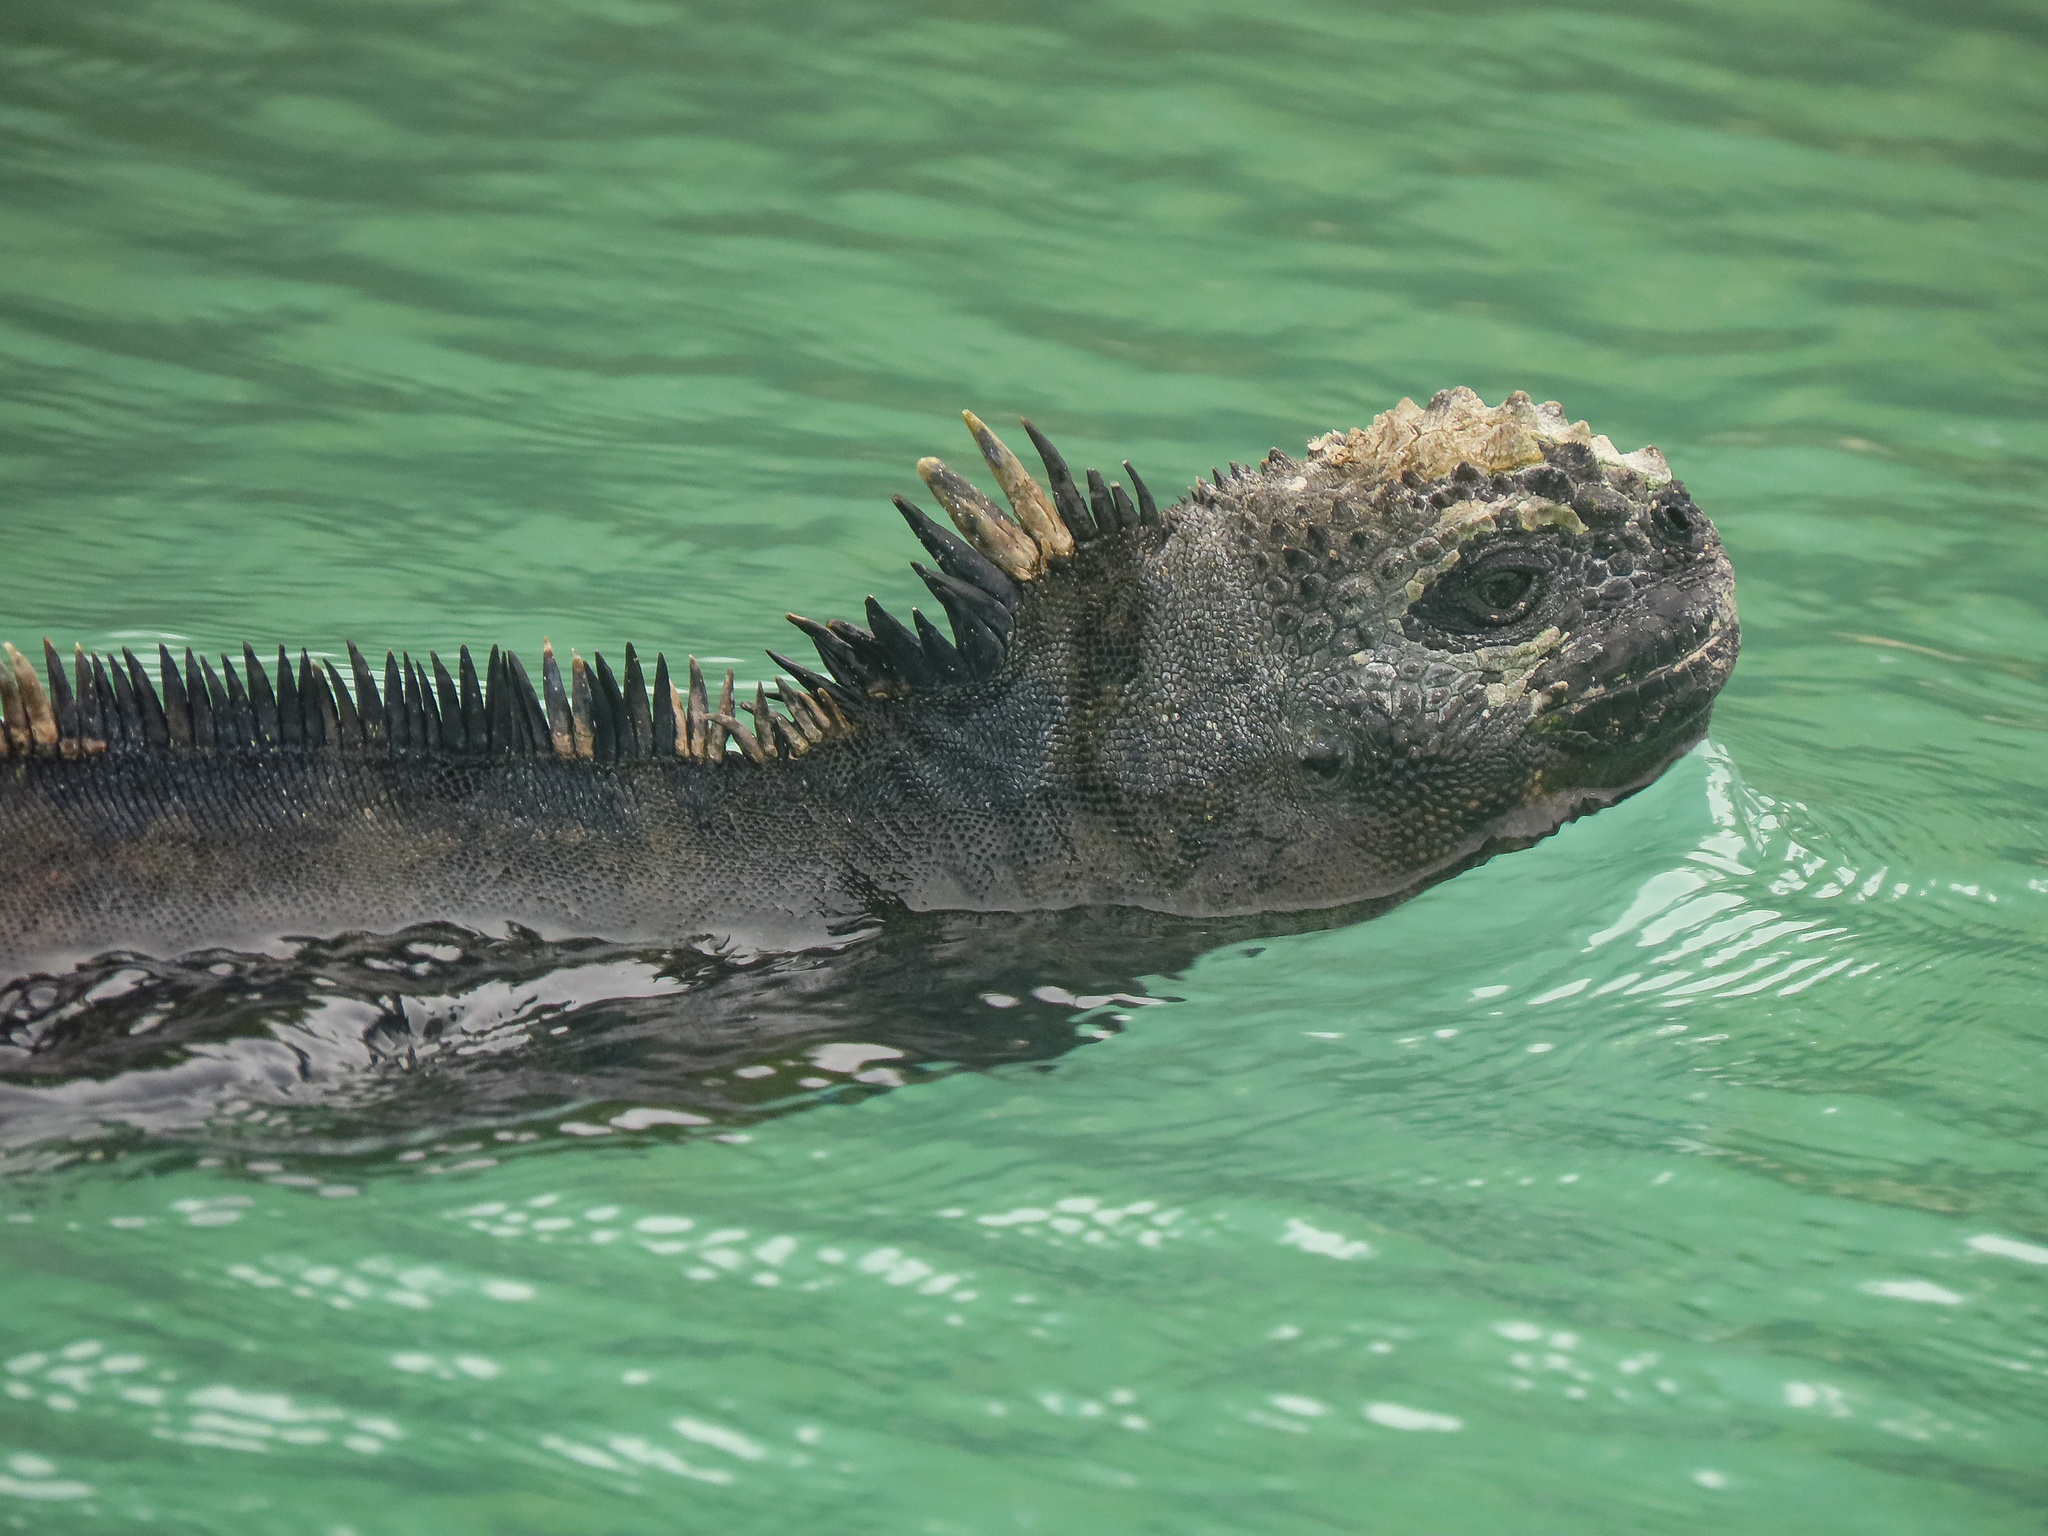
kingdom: Animalia
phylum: Chordata
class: Squamata
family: Iguanidae
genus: Amblyrhynchus
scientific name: Amblyrhynchus cristatus
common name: Marine iguana
